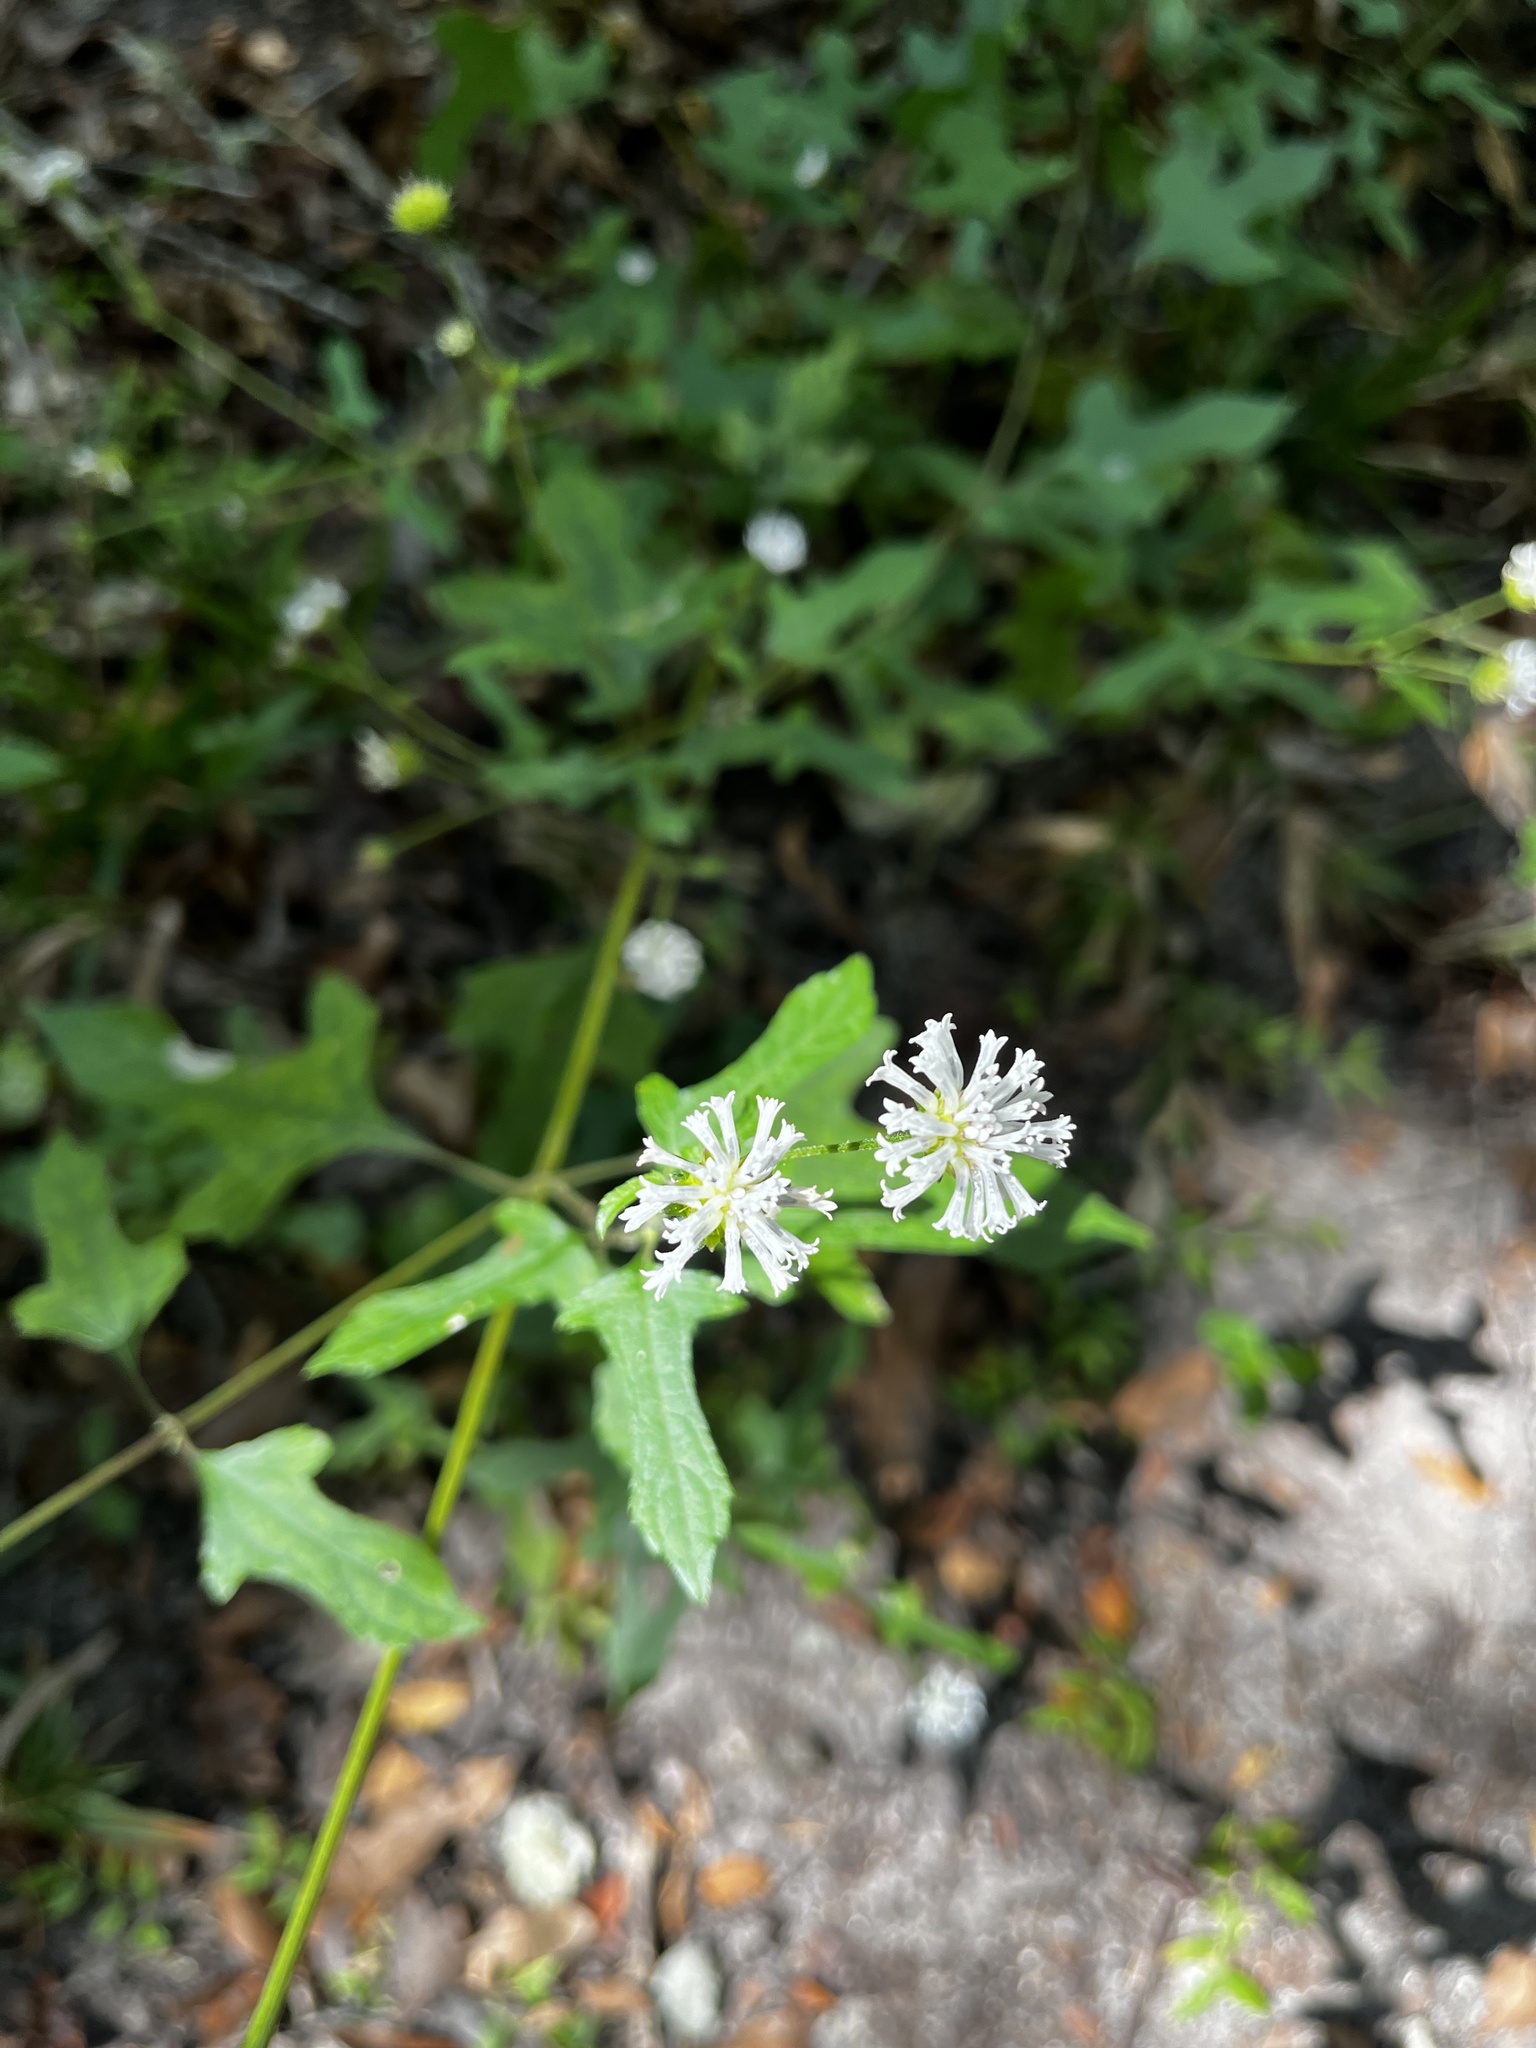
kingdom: Plantae
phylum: Tracheophyta
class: Magnoliopsida
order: Asterales
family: Asteraceae
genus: Melanthera
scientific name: Melanthera nivea
